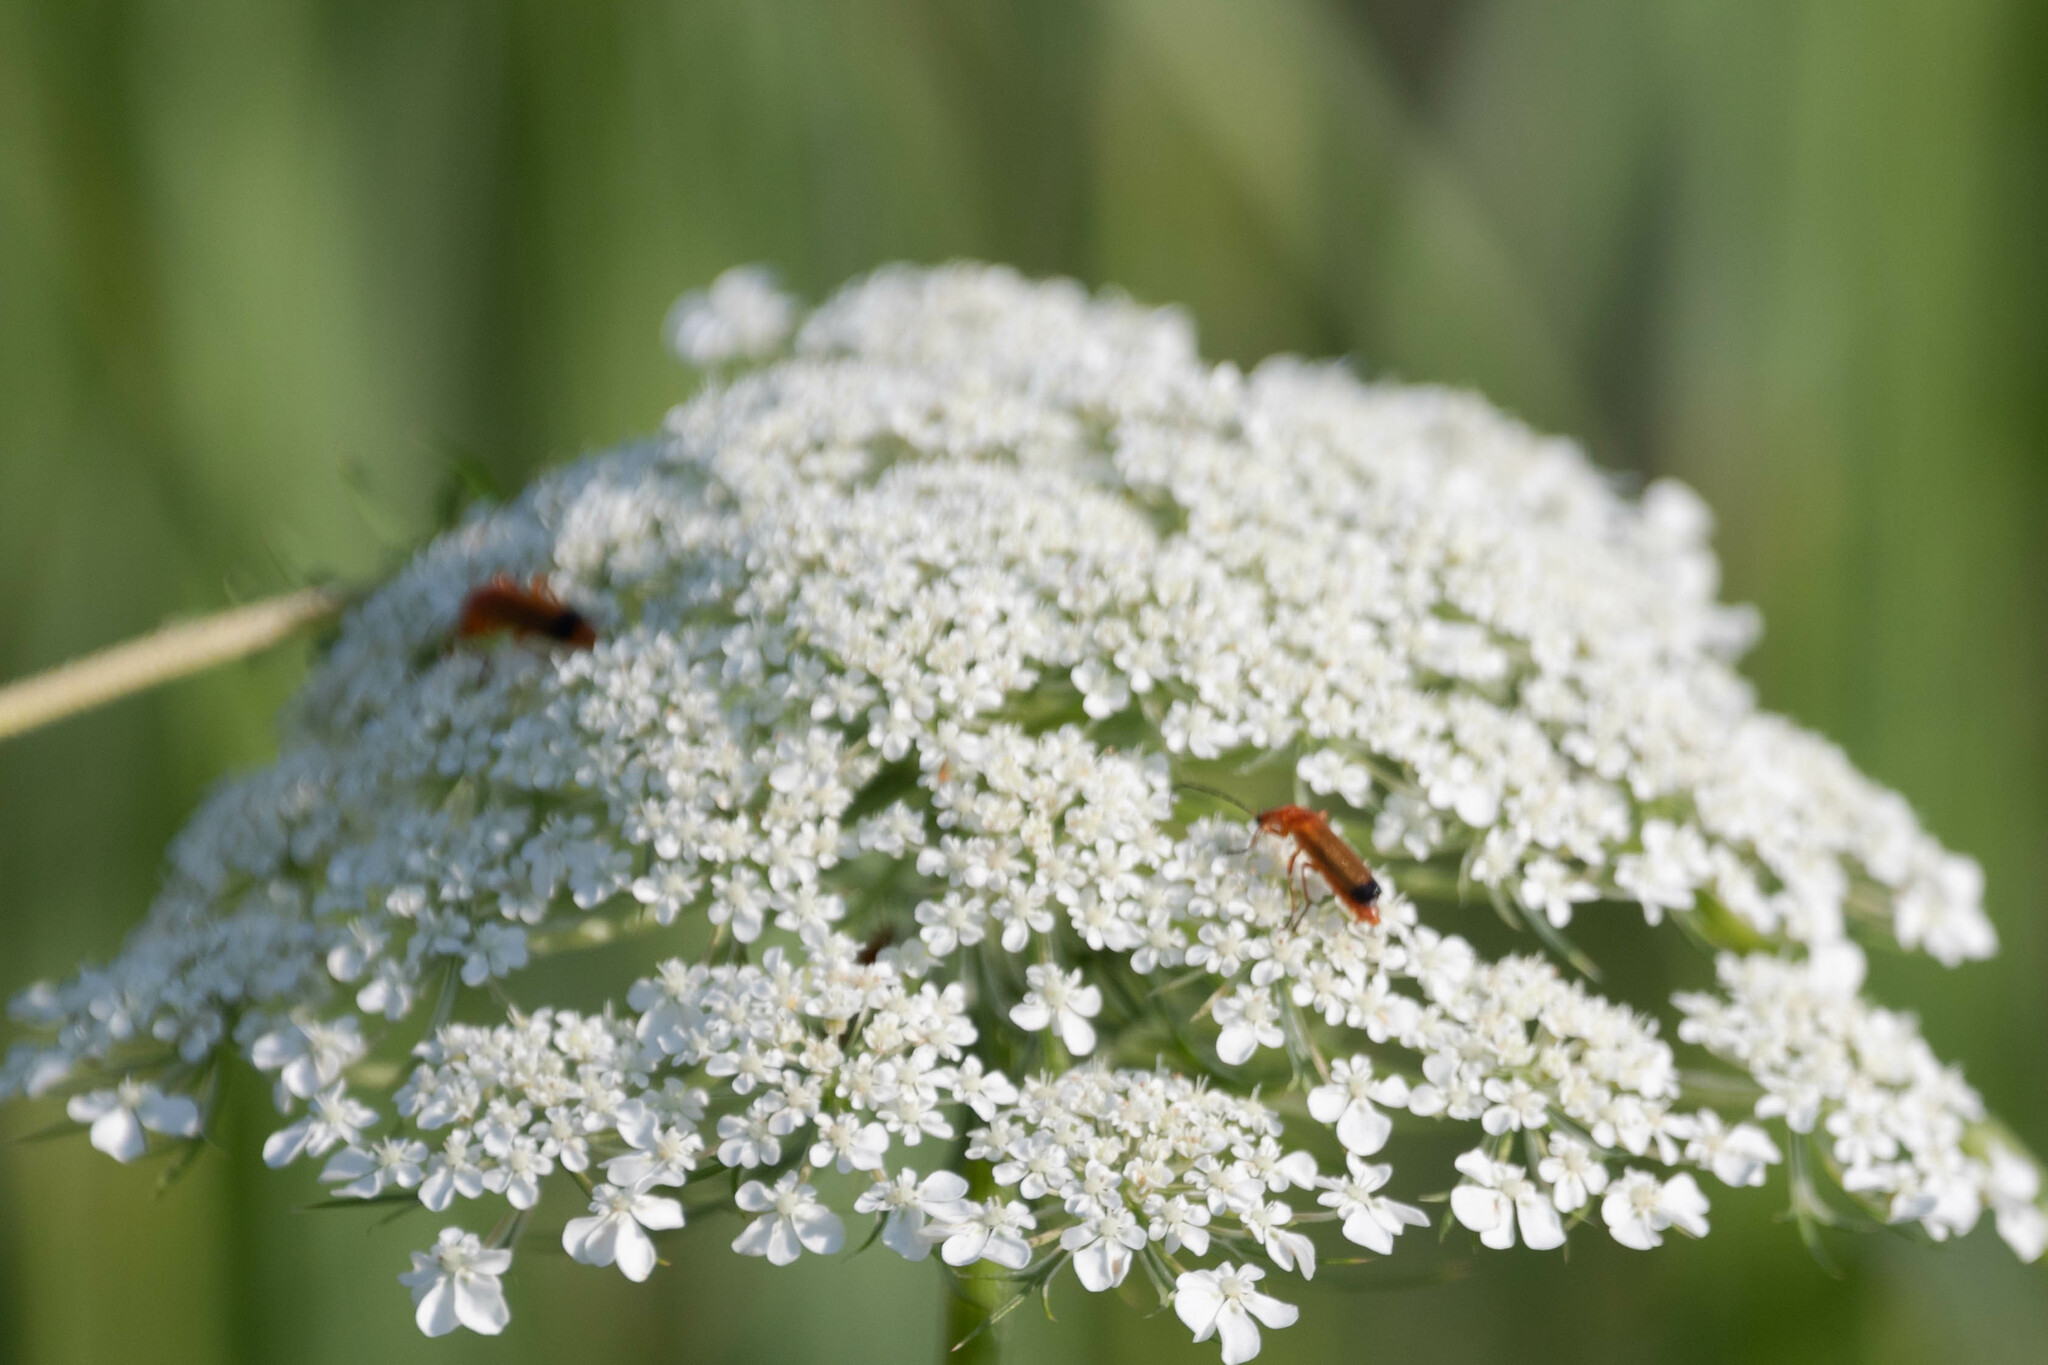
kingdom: Animalia
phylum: Arthropoda
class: Insecta
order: Coleoptera
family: Cantharidae
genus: Rhagonycha
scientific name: Rhagonycha fulva
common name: Common red soldier beetle
